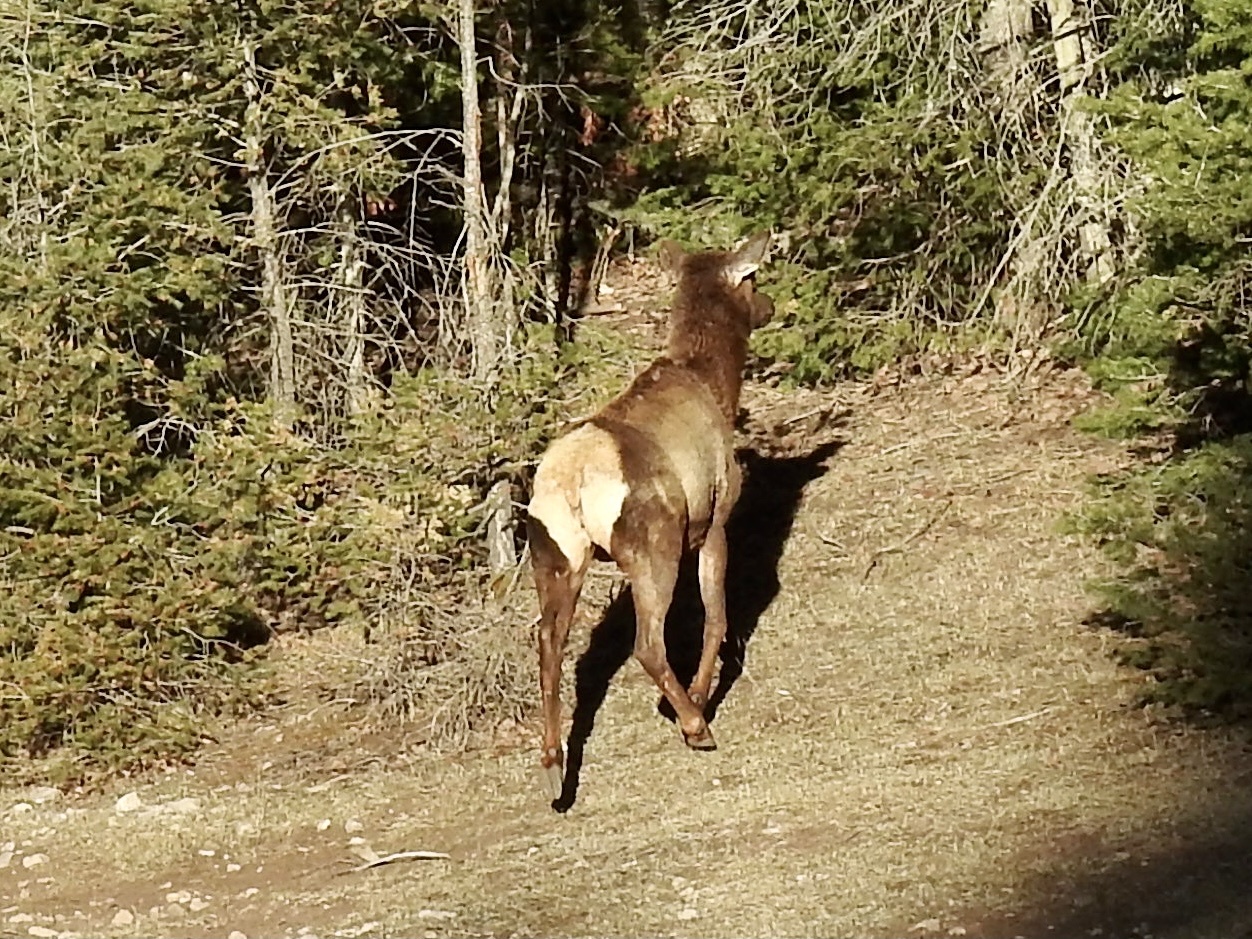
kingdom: Animalia
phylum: Chordata
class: Mammalia
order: Artiodactyla
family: Cervidae
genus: Cervus
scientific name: Cervus elaphus
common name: Red deer
